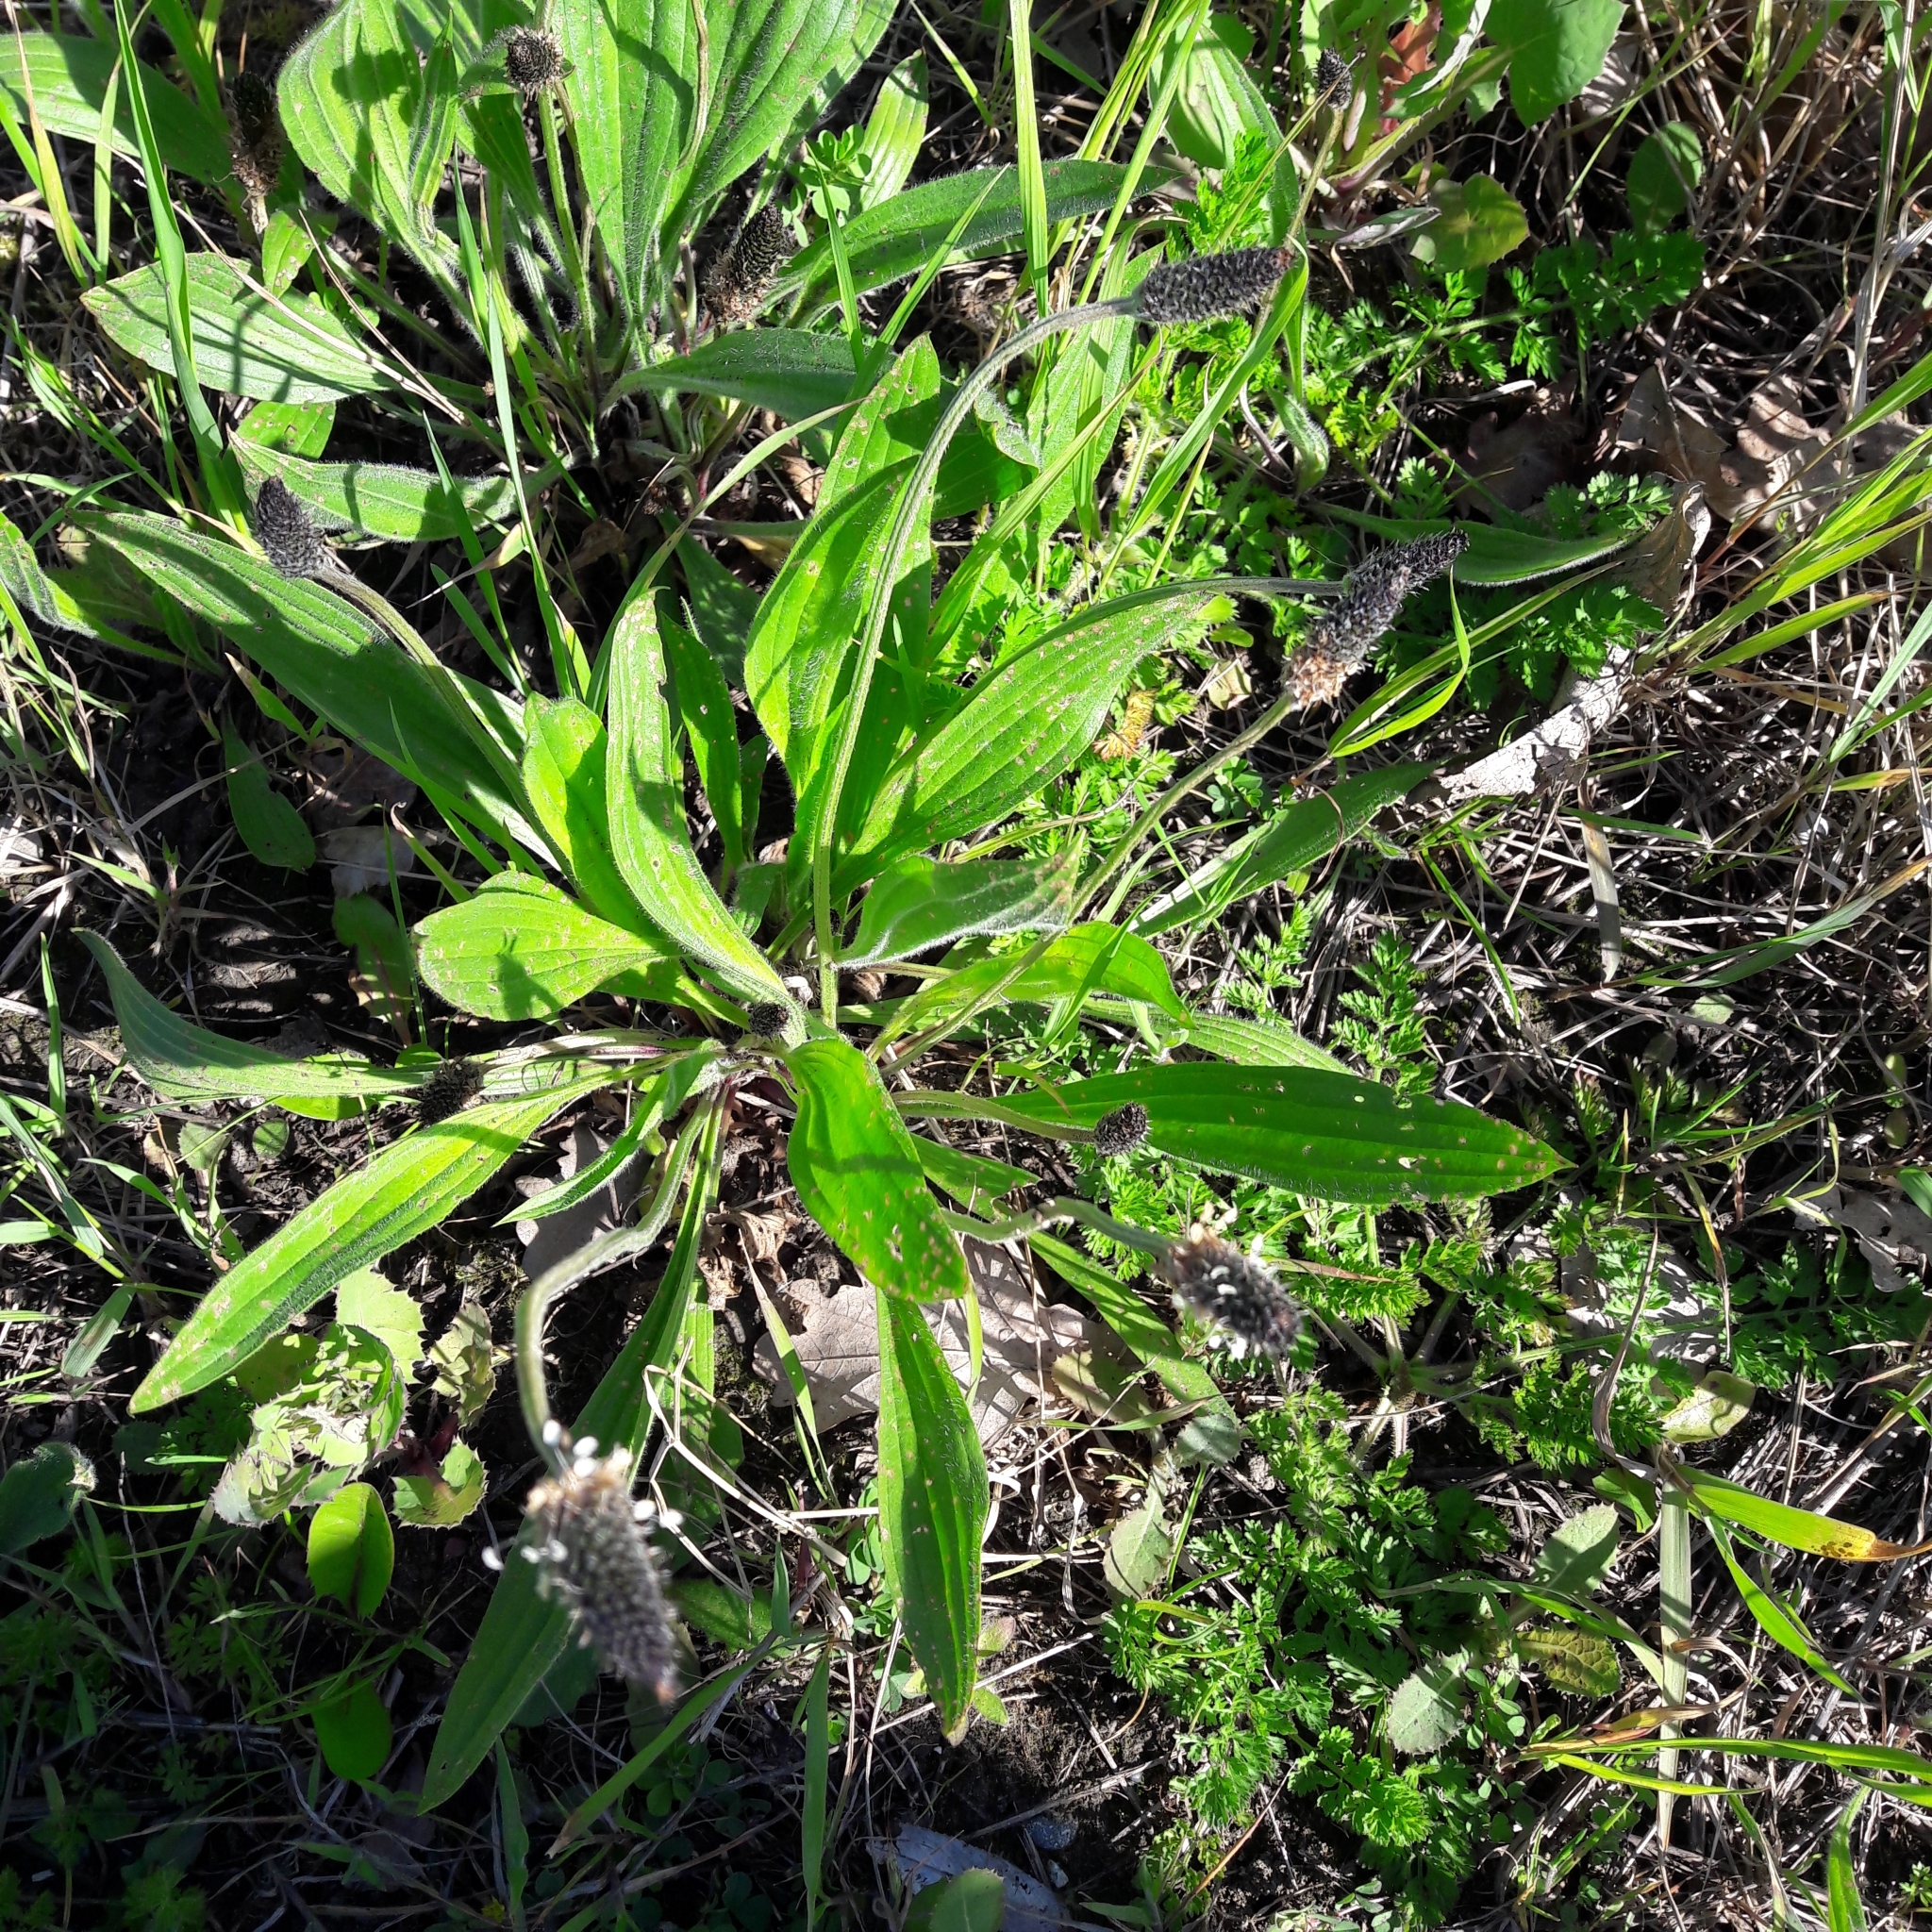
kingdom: Plantae
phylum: Tracheophyta
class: Magnoliopsida
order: Lamiales
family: Plantaginaceae
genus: Plantago
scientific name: Plantago lanceolata
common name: Ribwort plantain
